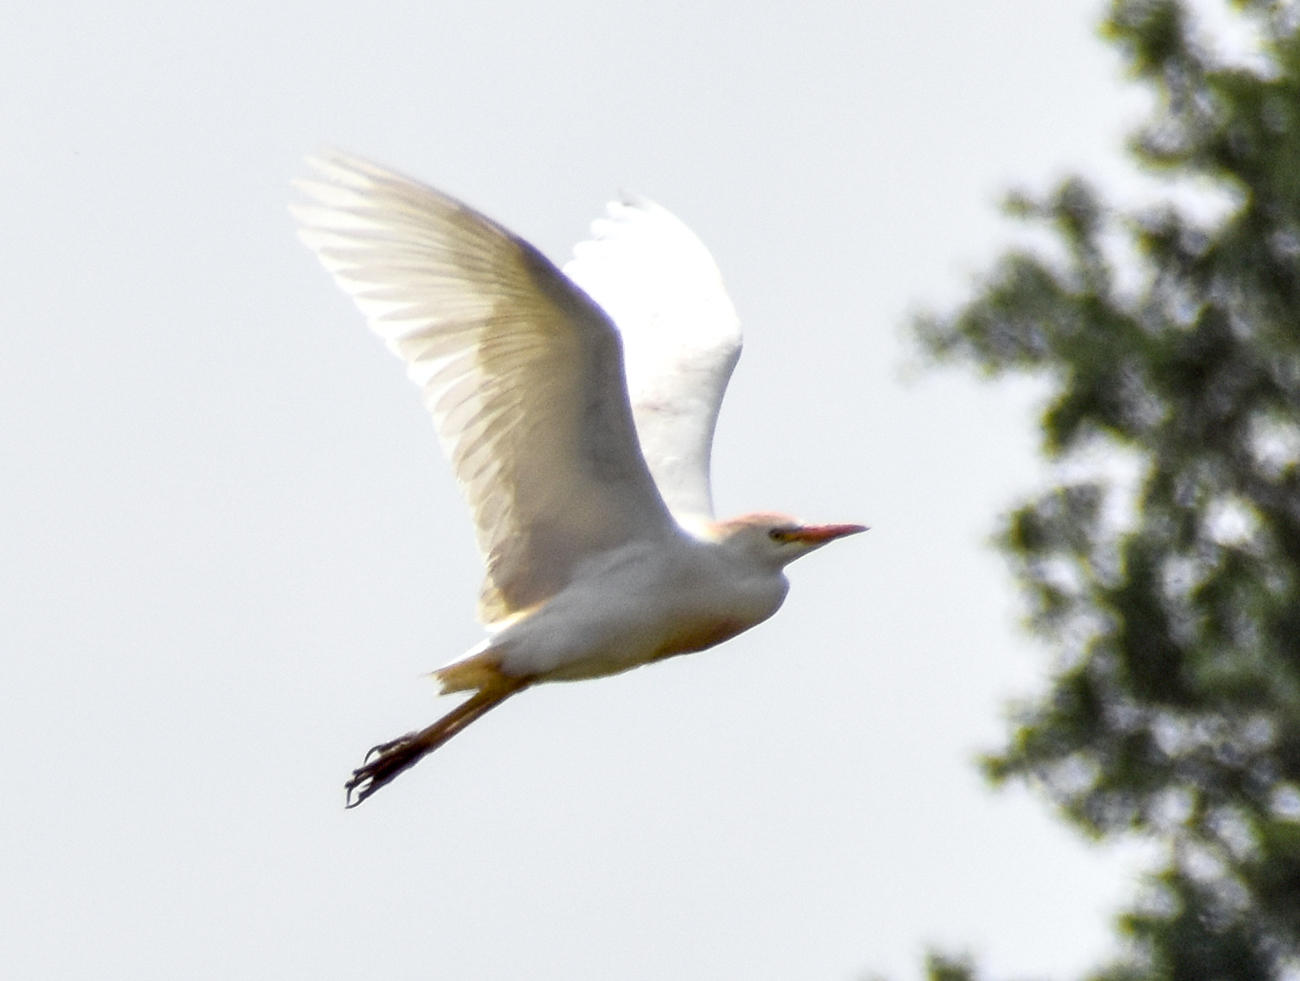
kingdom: Animalia
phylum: Chordata
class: Aves
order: Pelecaniformes
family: Ardeidae
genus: Bubulcus
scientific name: Bubulcus ibis
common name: Cattle egret
